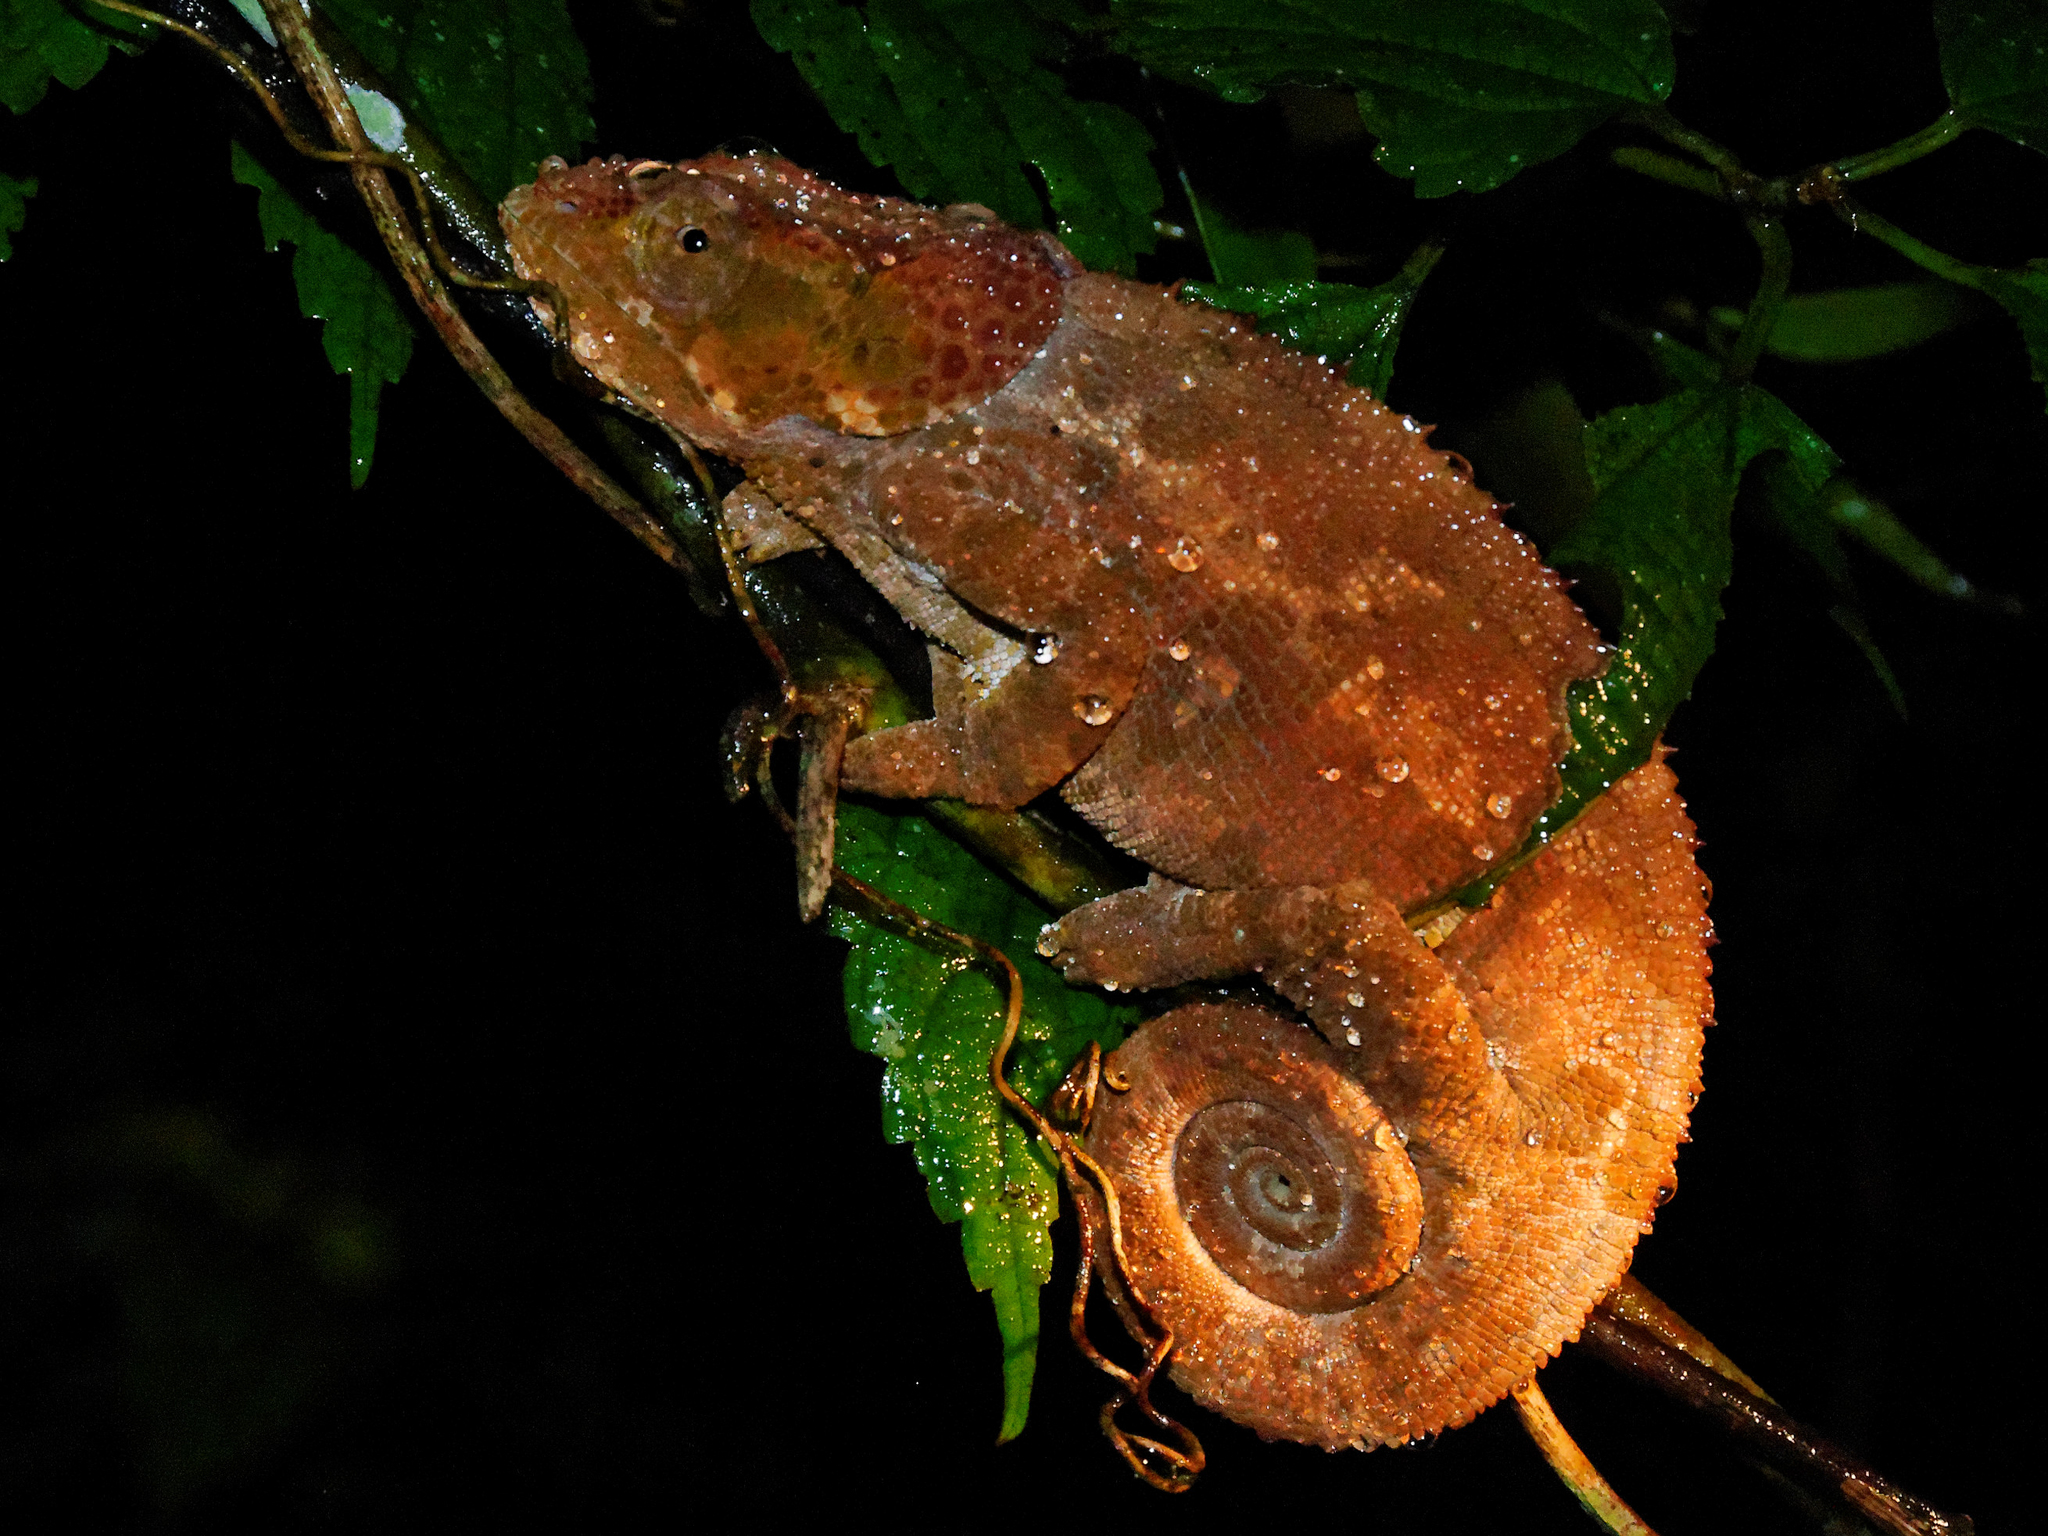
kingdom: Animalia
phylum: Chordata
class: Squamata
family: Chamaeleonidae
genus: Calumma
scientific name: Calumma crypticum
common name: Cryptic chameleon
